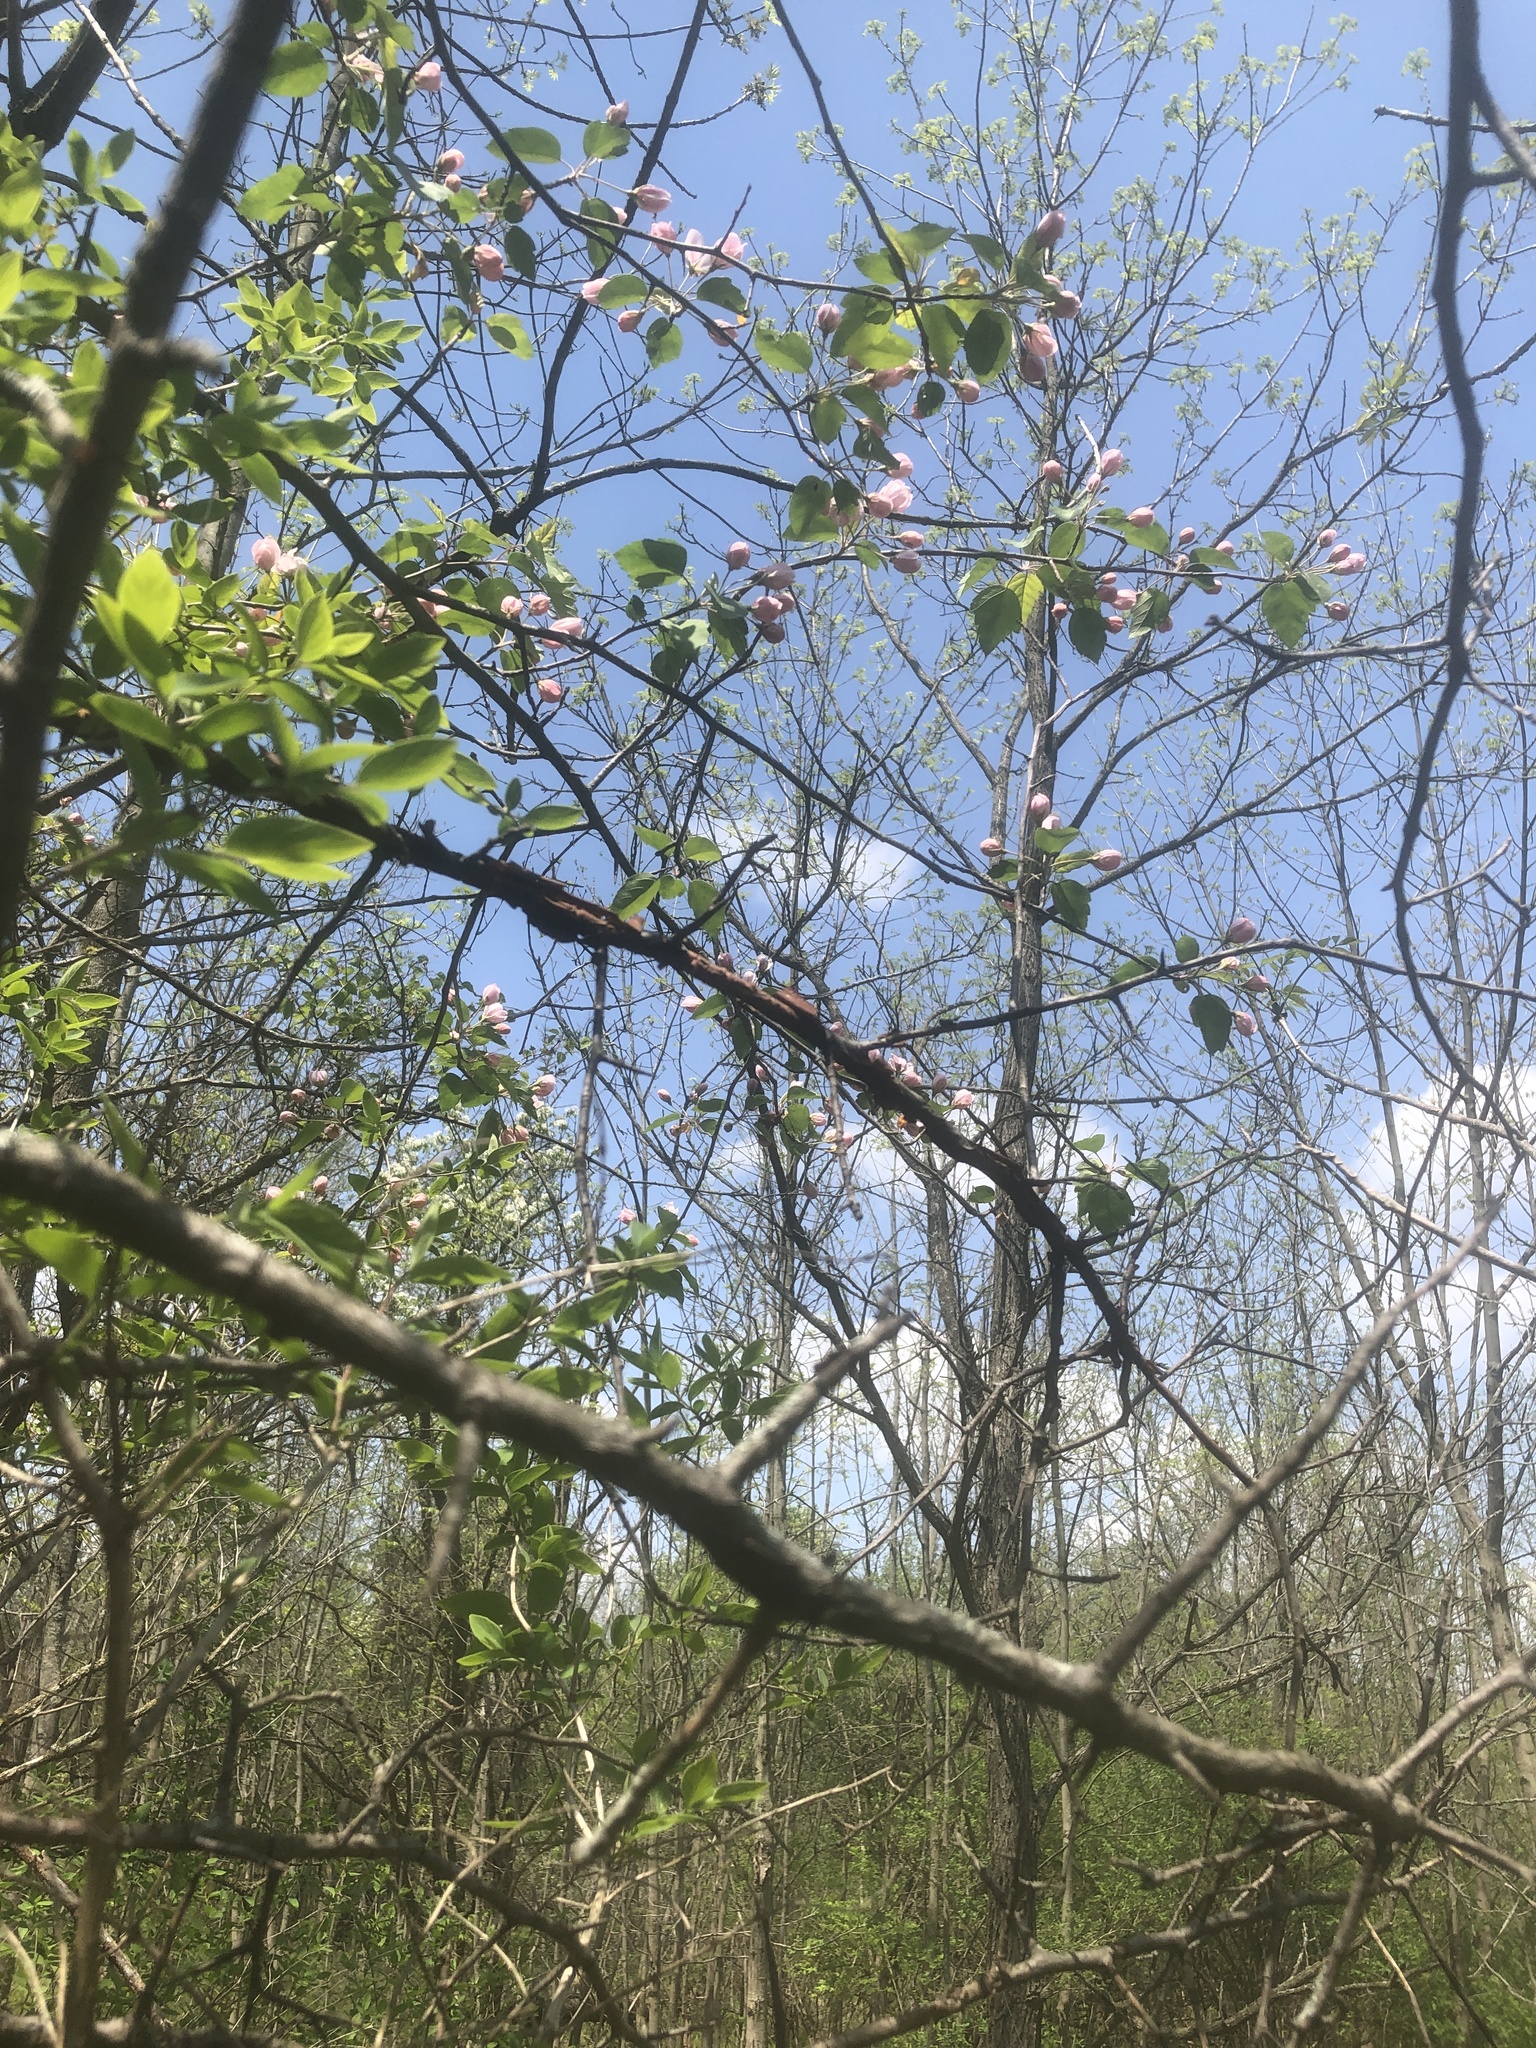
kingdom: Plantae
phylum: Tracheophyta
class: Magnoliopsida
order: Rosales
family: Rosaceae
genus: Malus
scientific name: Malus coronaria
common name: Sweet crab apple
